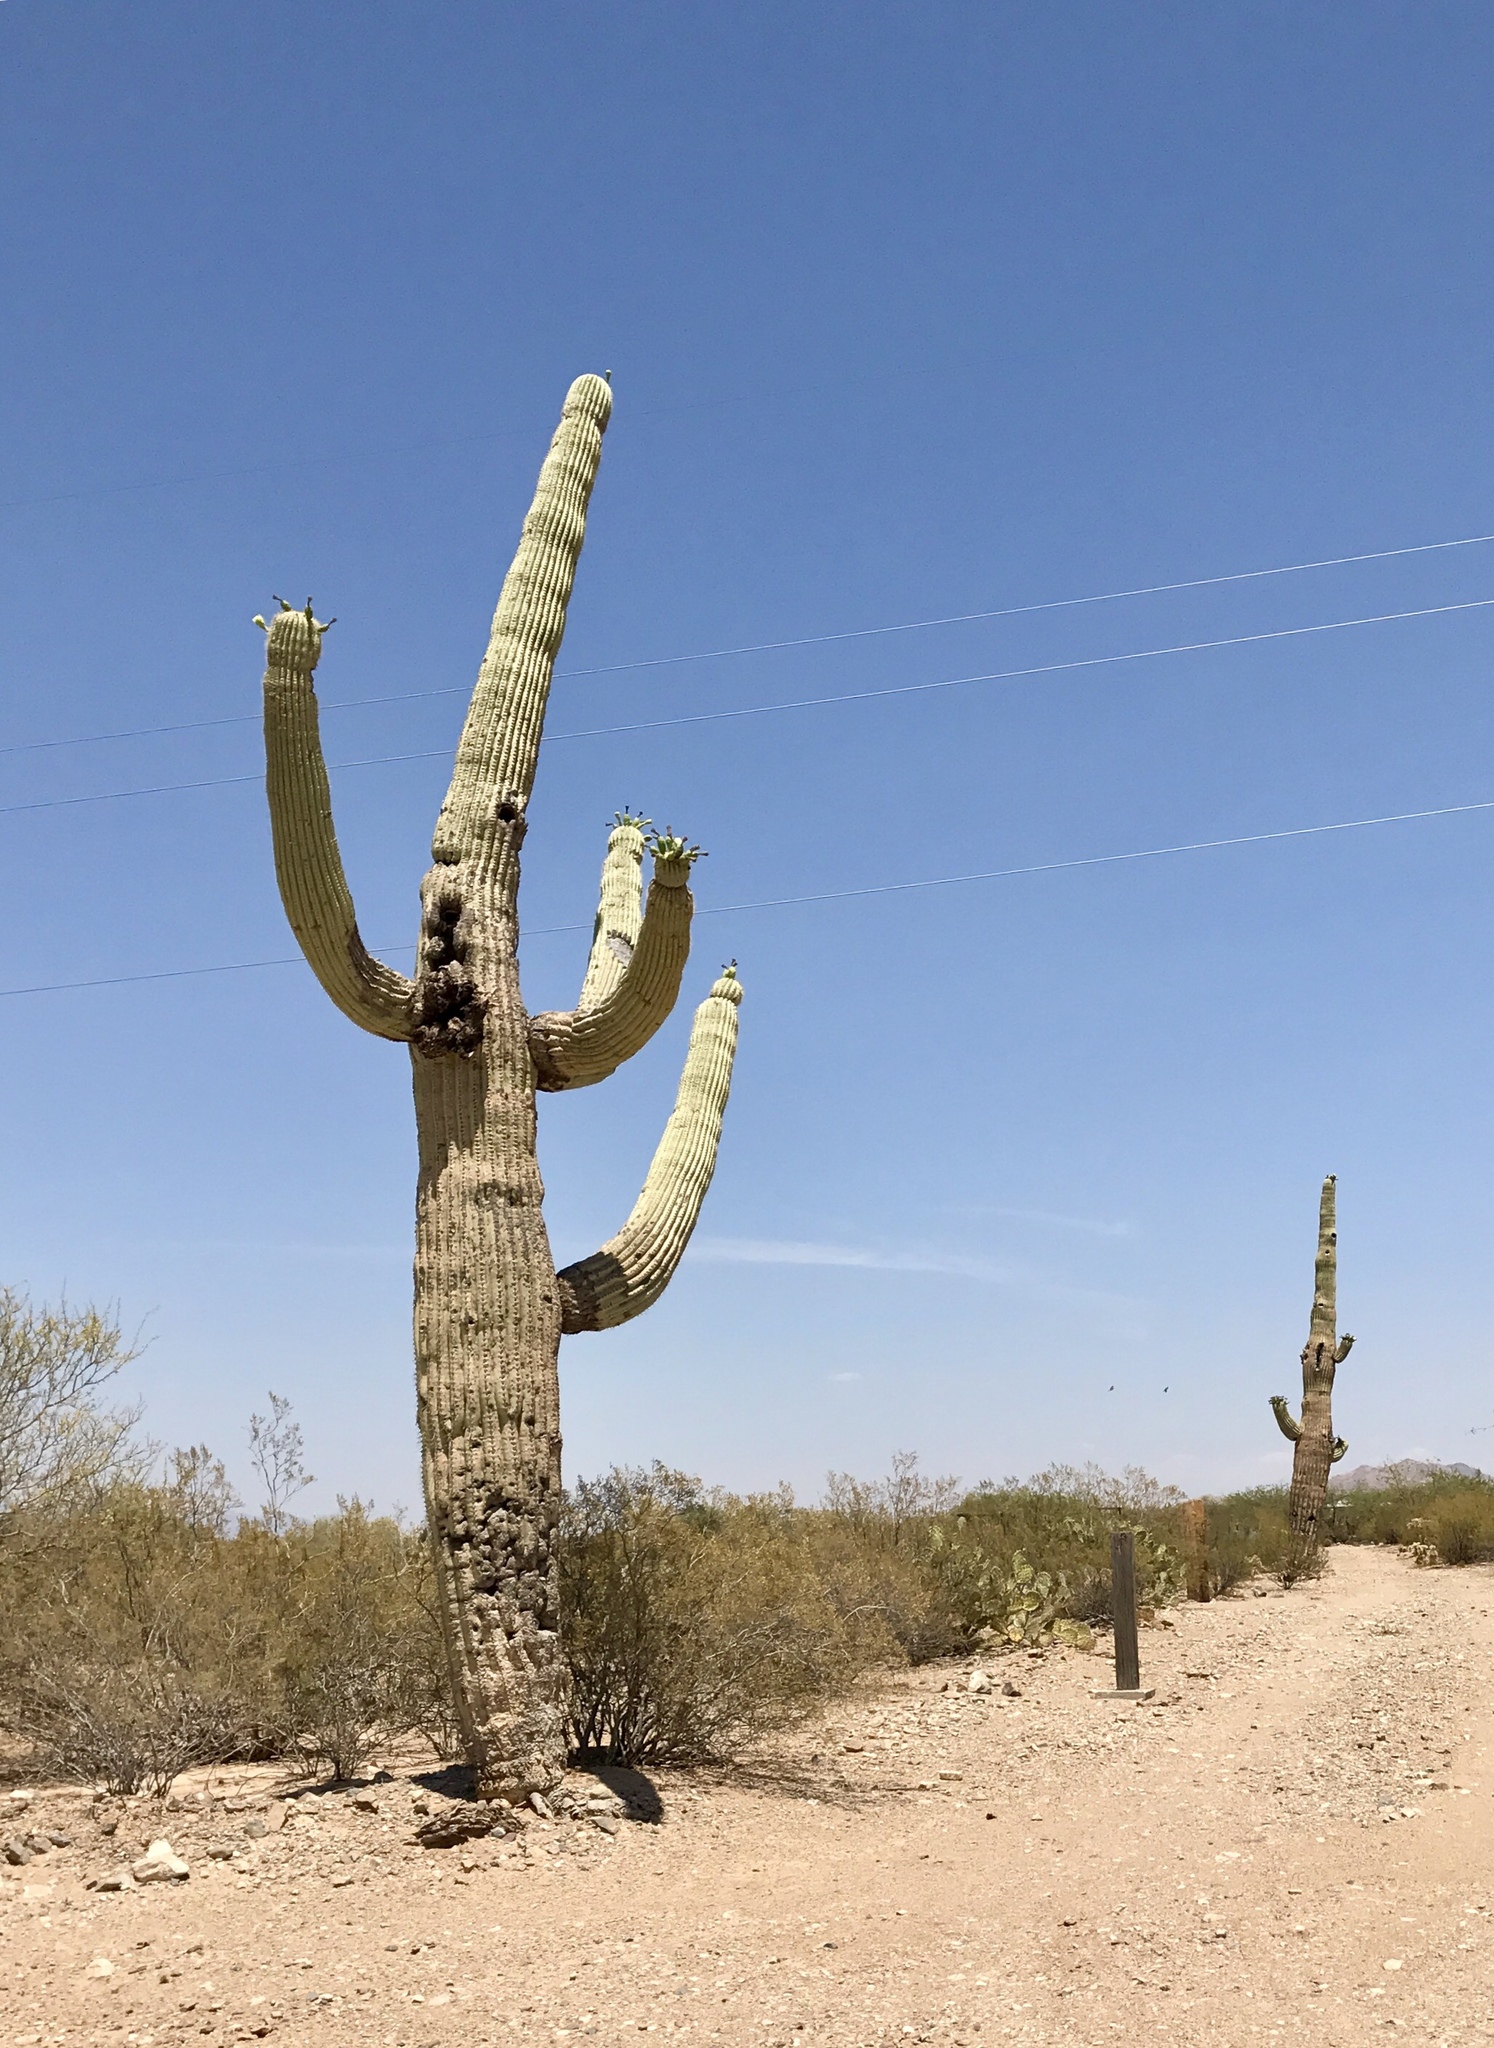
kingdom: Plantae
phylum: Tracheophyta
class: Magnoliopsida
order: Caryophyllales
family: Cactaceae
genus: Carnegiea
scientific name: Carnegiea gigantea
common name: Saguaro
